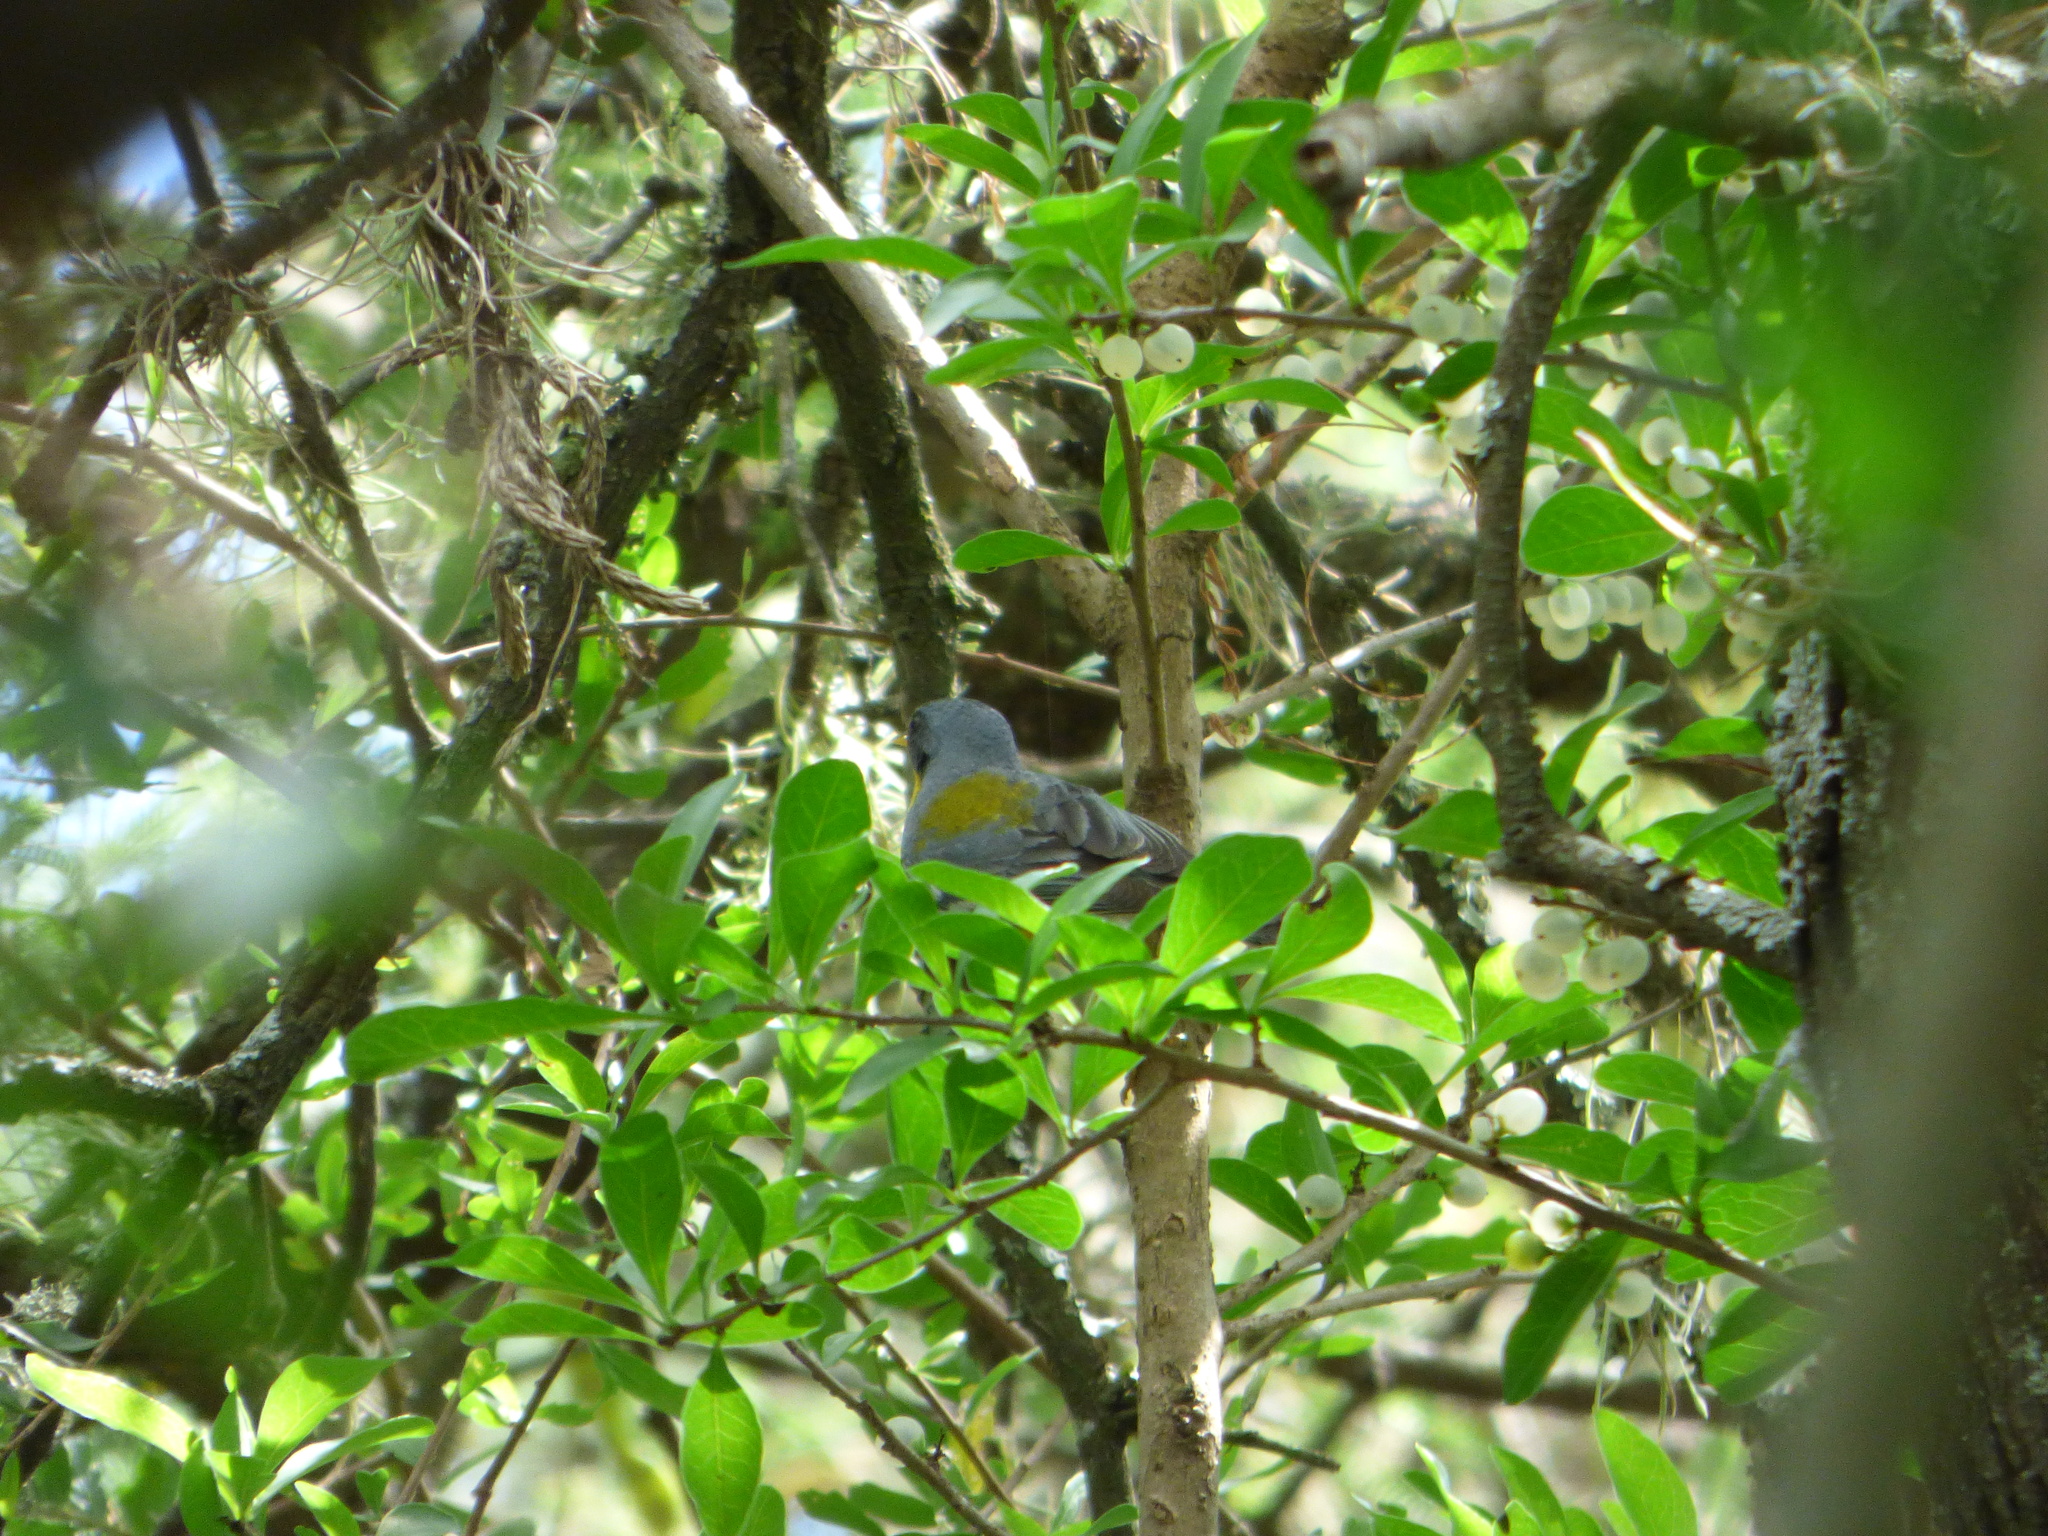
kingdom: Animalia
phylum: Chordata
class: Aves
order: Passeriformes
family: Parulidae
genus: Setophaga
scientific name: Setophaga pitiayumi
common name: Tropical parula
